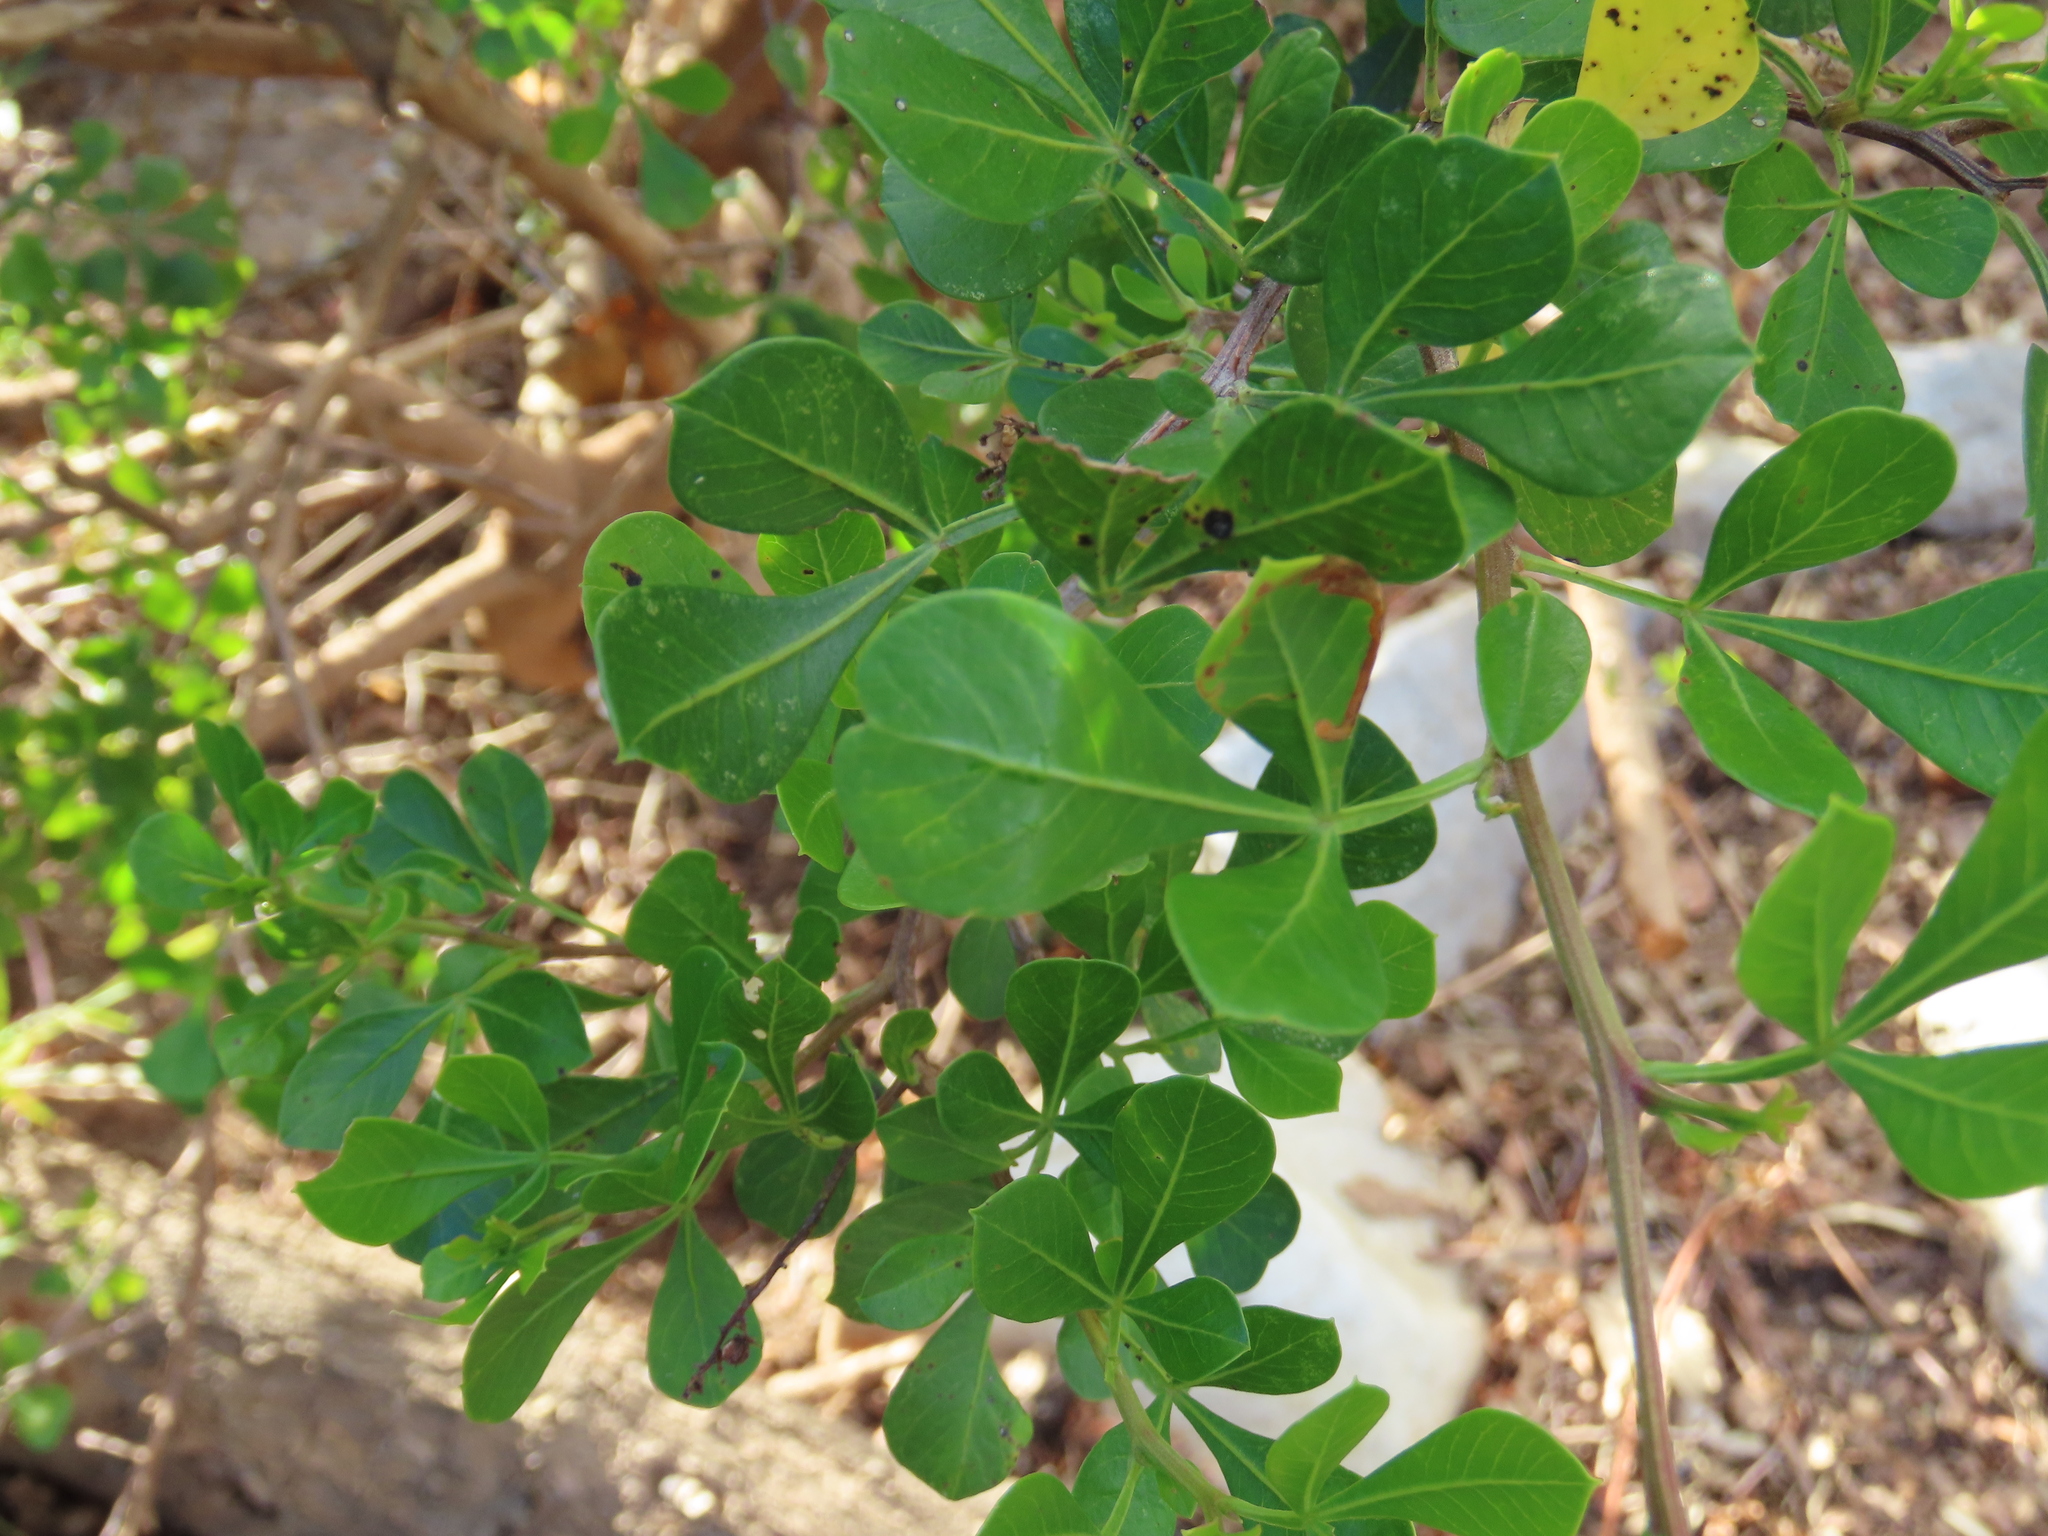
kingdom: Plantae
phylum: Tracheophyta
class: Magnoliopsida
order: Sapindales
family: Anacardiaceae
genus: Searsia
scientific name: Searsia laevigata
